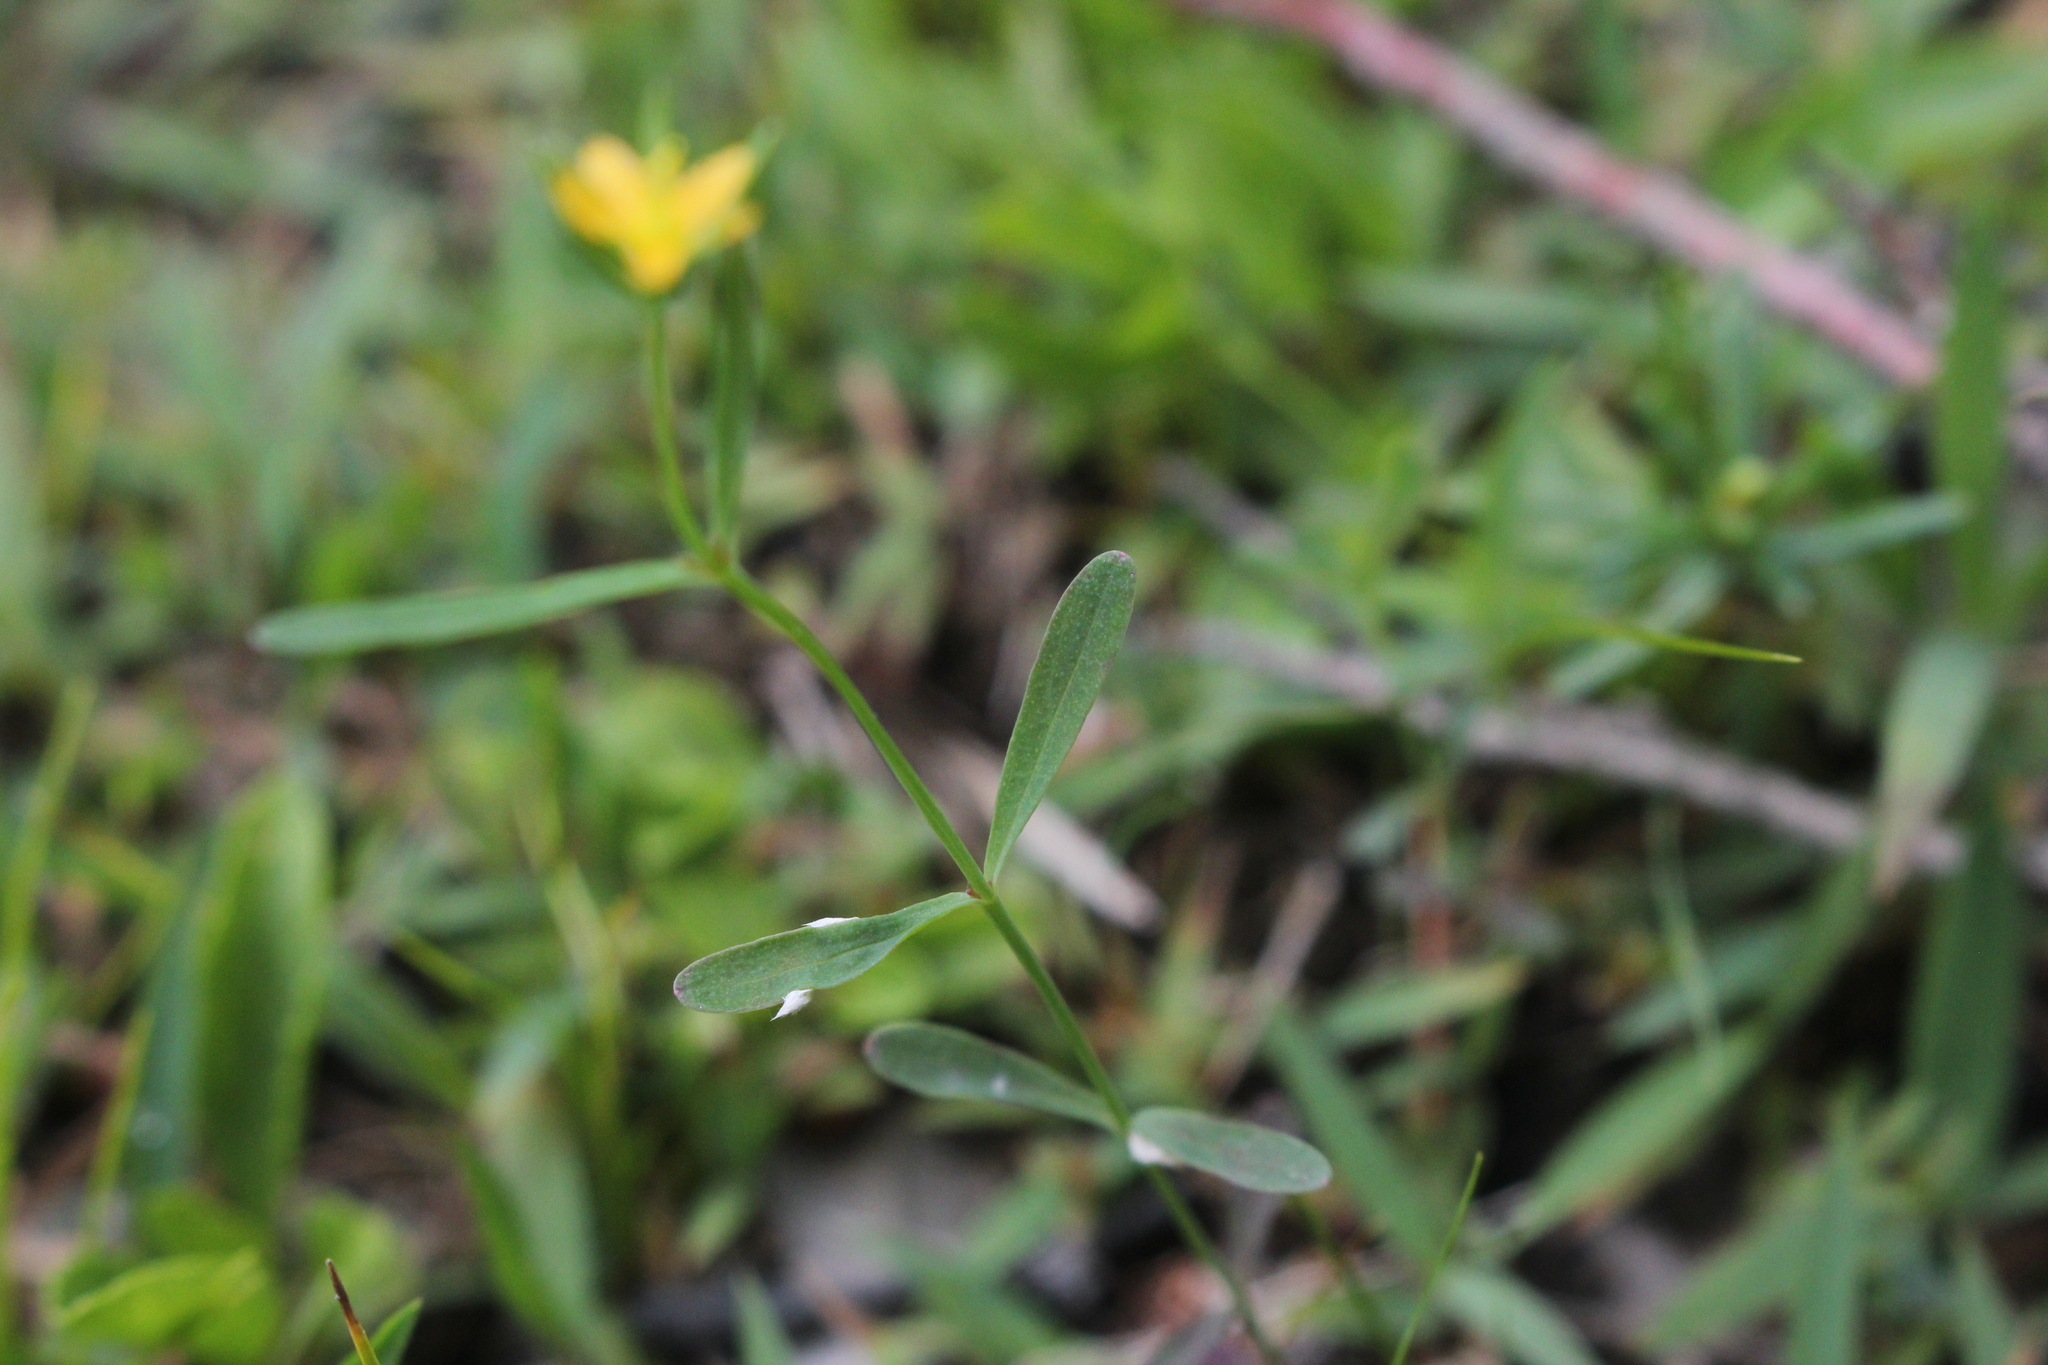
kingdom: Plantae
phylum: Tracheophyta
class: Magnoliopsida
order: Malpighiales
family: Hypericaceae
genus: Hypericum
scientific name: Hypericum canadense
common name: Irish st. john's-wort
